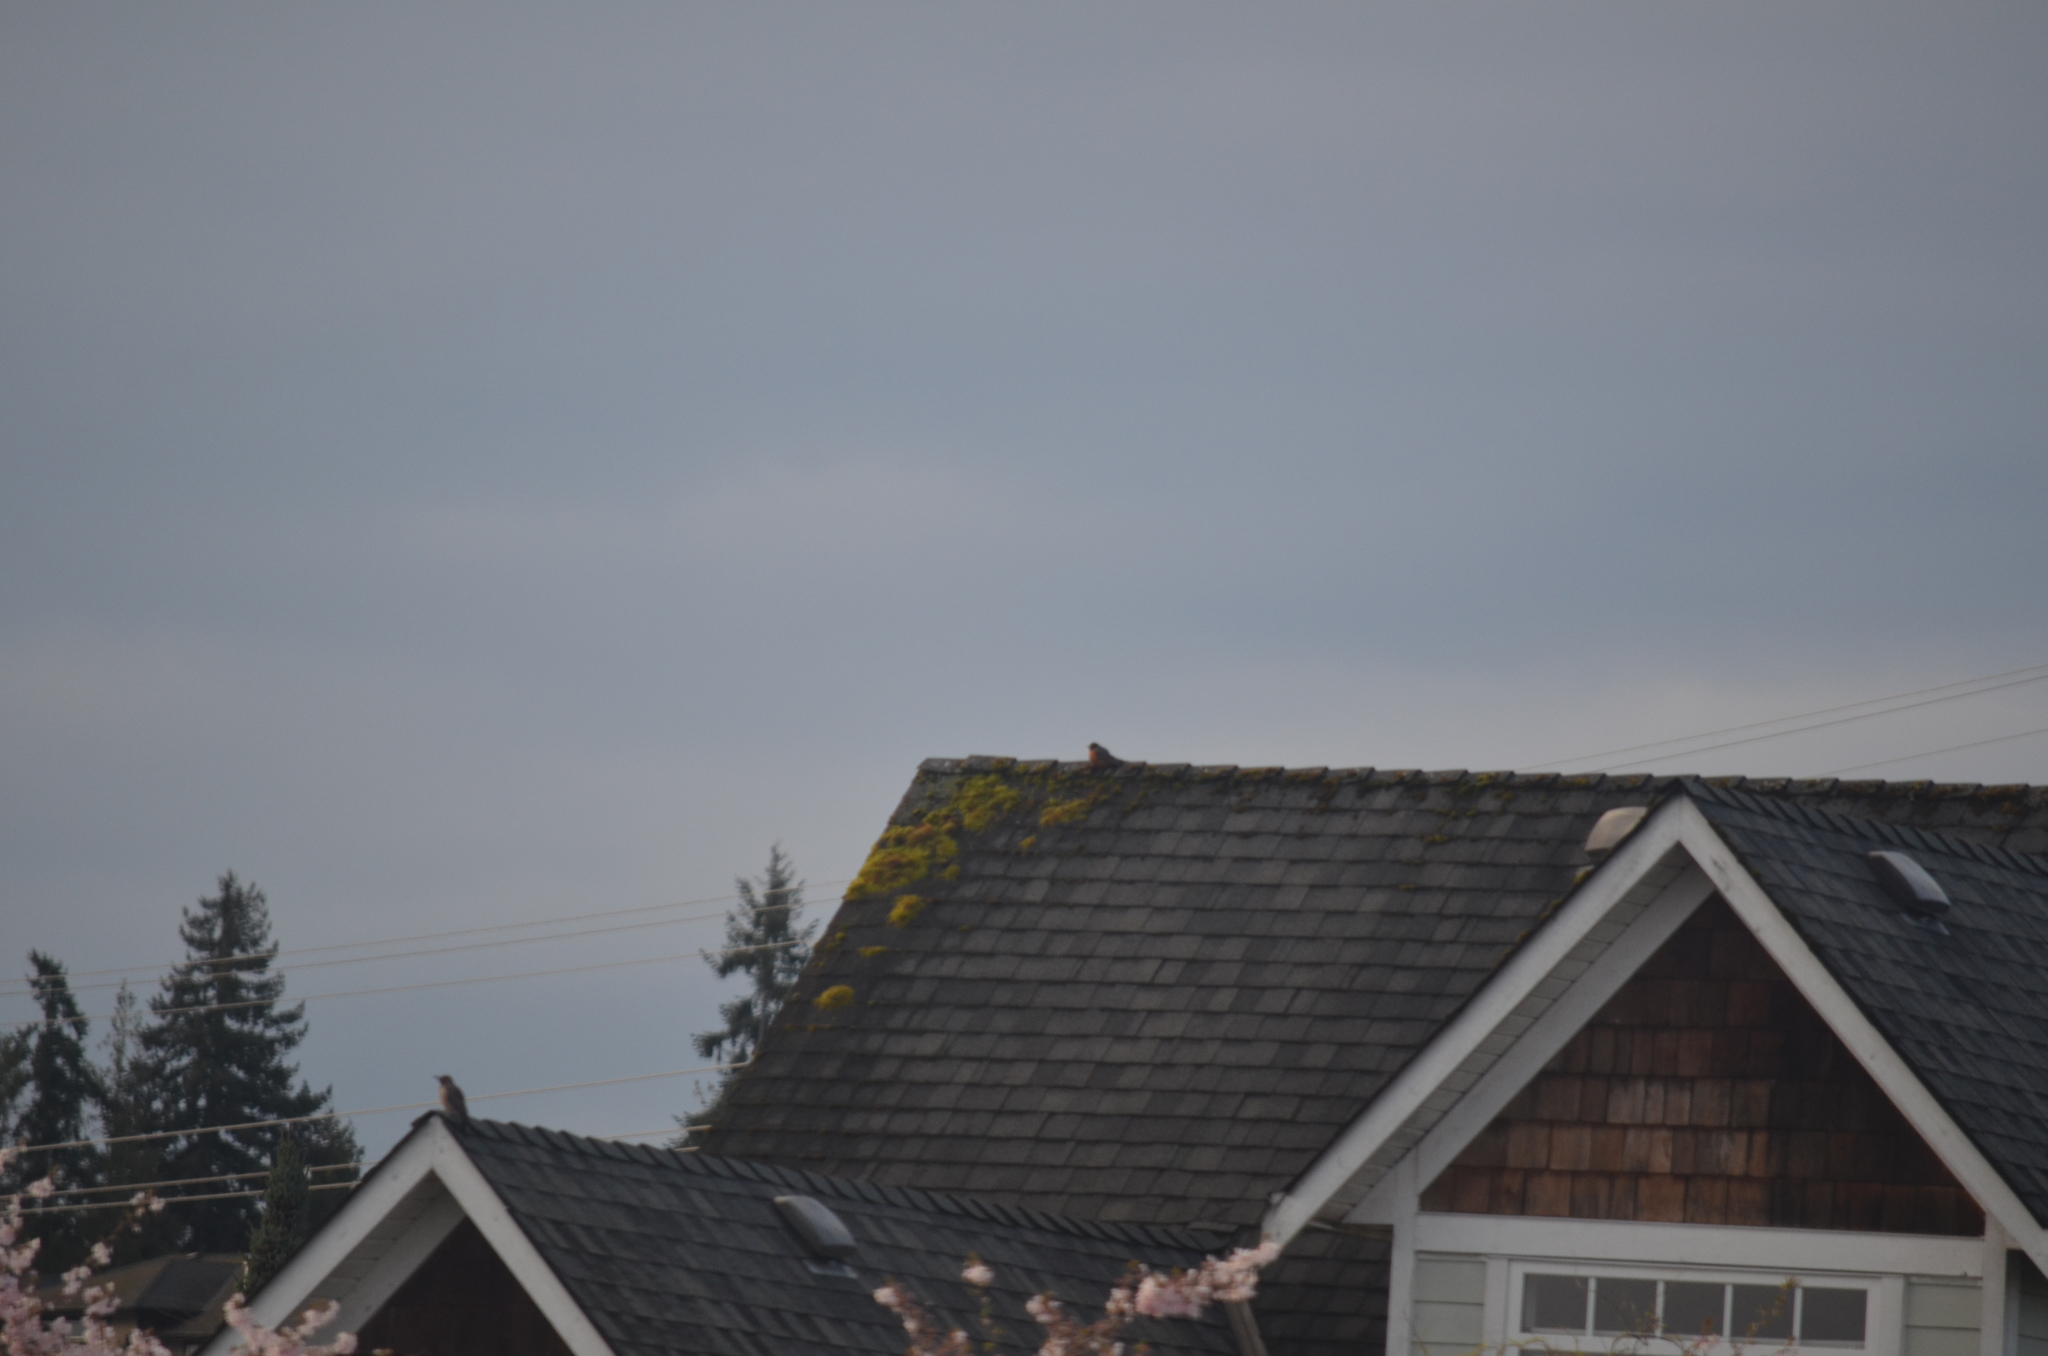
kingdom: Animalia
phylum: Chordata
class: Aves
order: Passeriformes
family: Turdidae
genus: Turdus
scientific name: Turdus migratorius
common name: American robin
